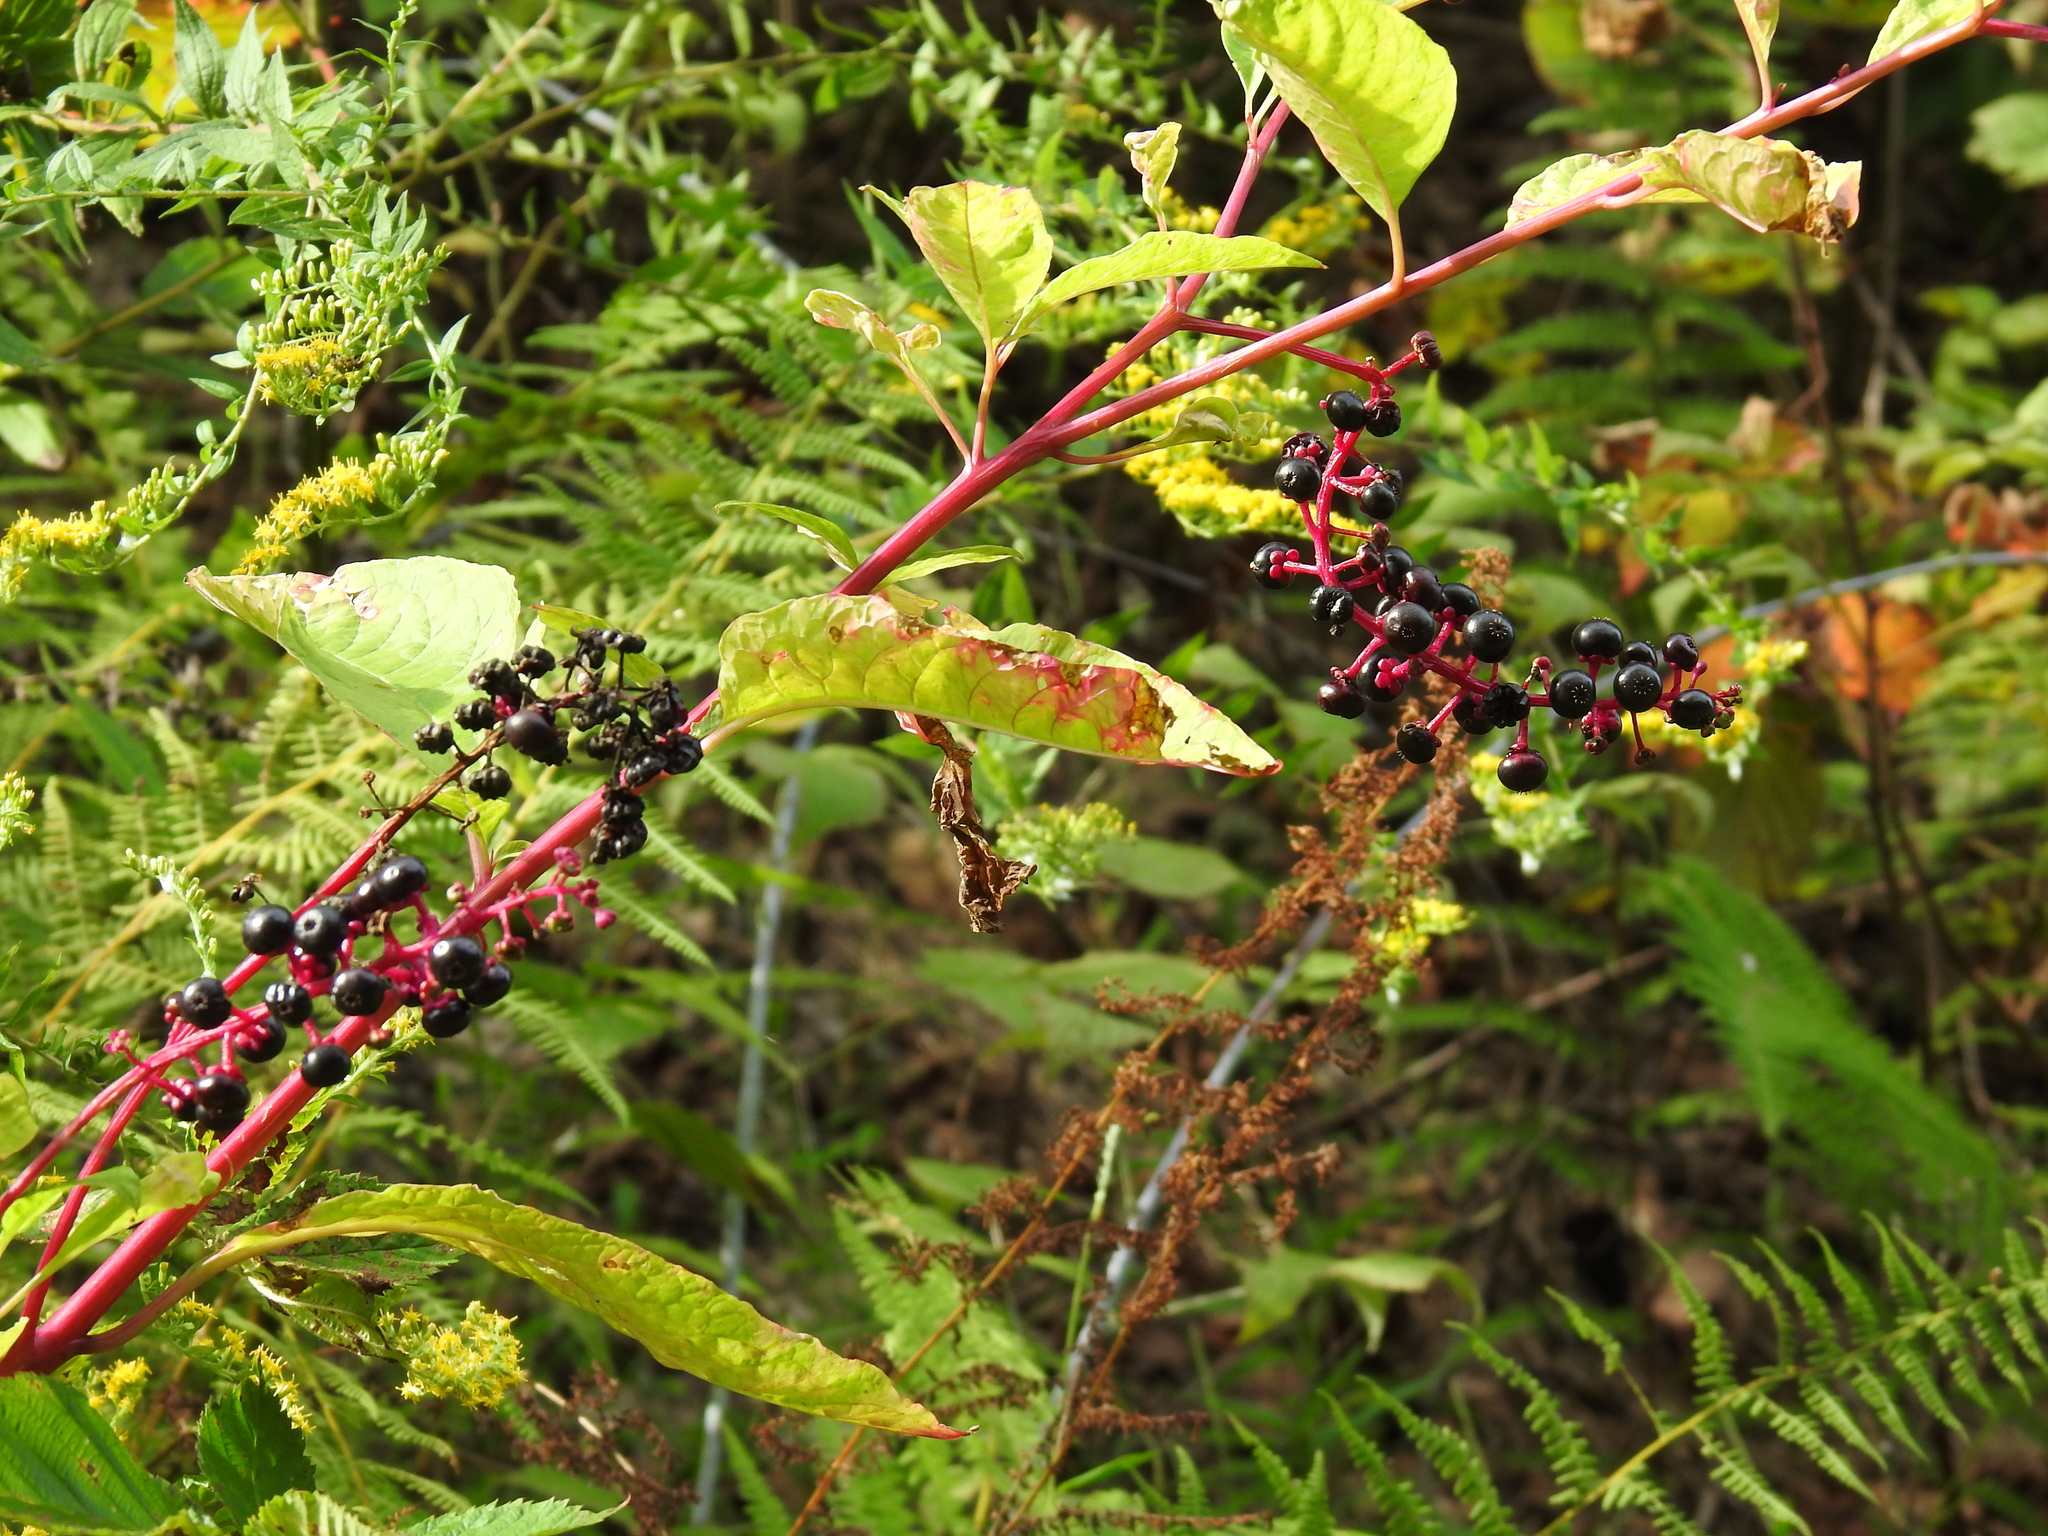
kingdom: Plantae
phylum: Tracheophyta
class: Magnoliopsida
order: Caryophyllales
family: Phytolaccaceae
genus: Phytolacca
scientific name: Phytolacca americana
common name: American pokeweed
